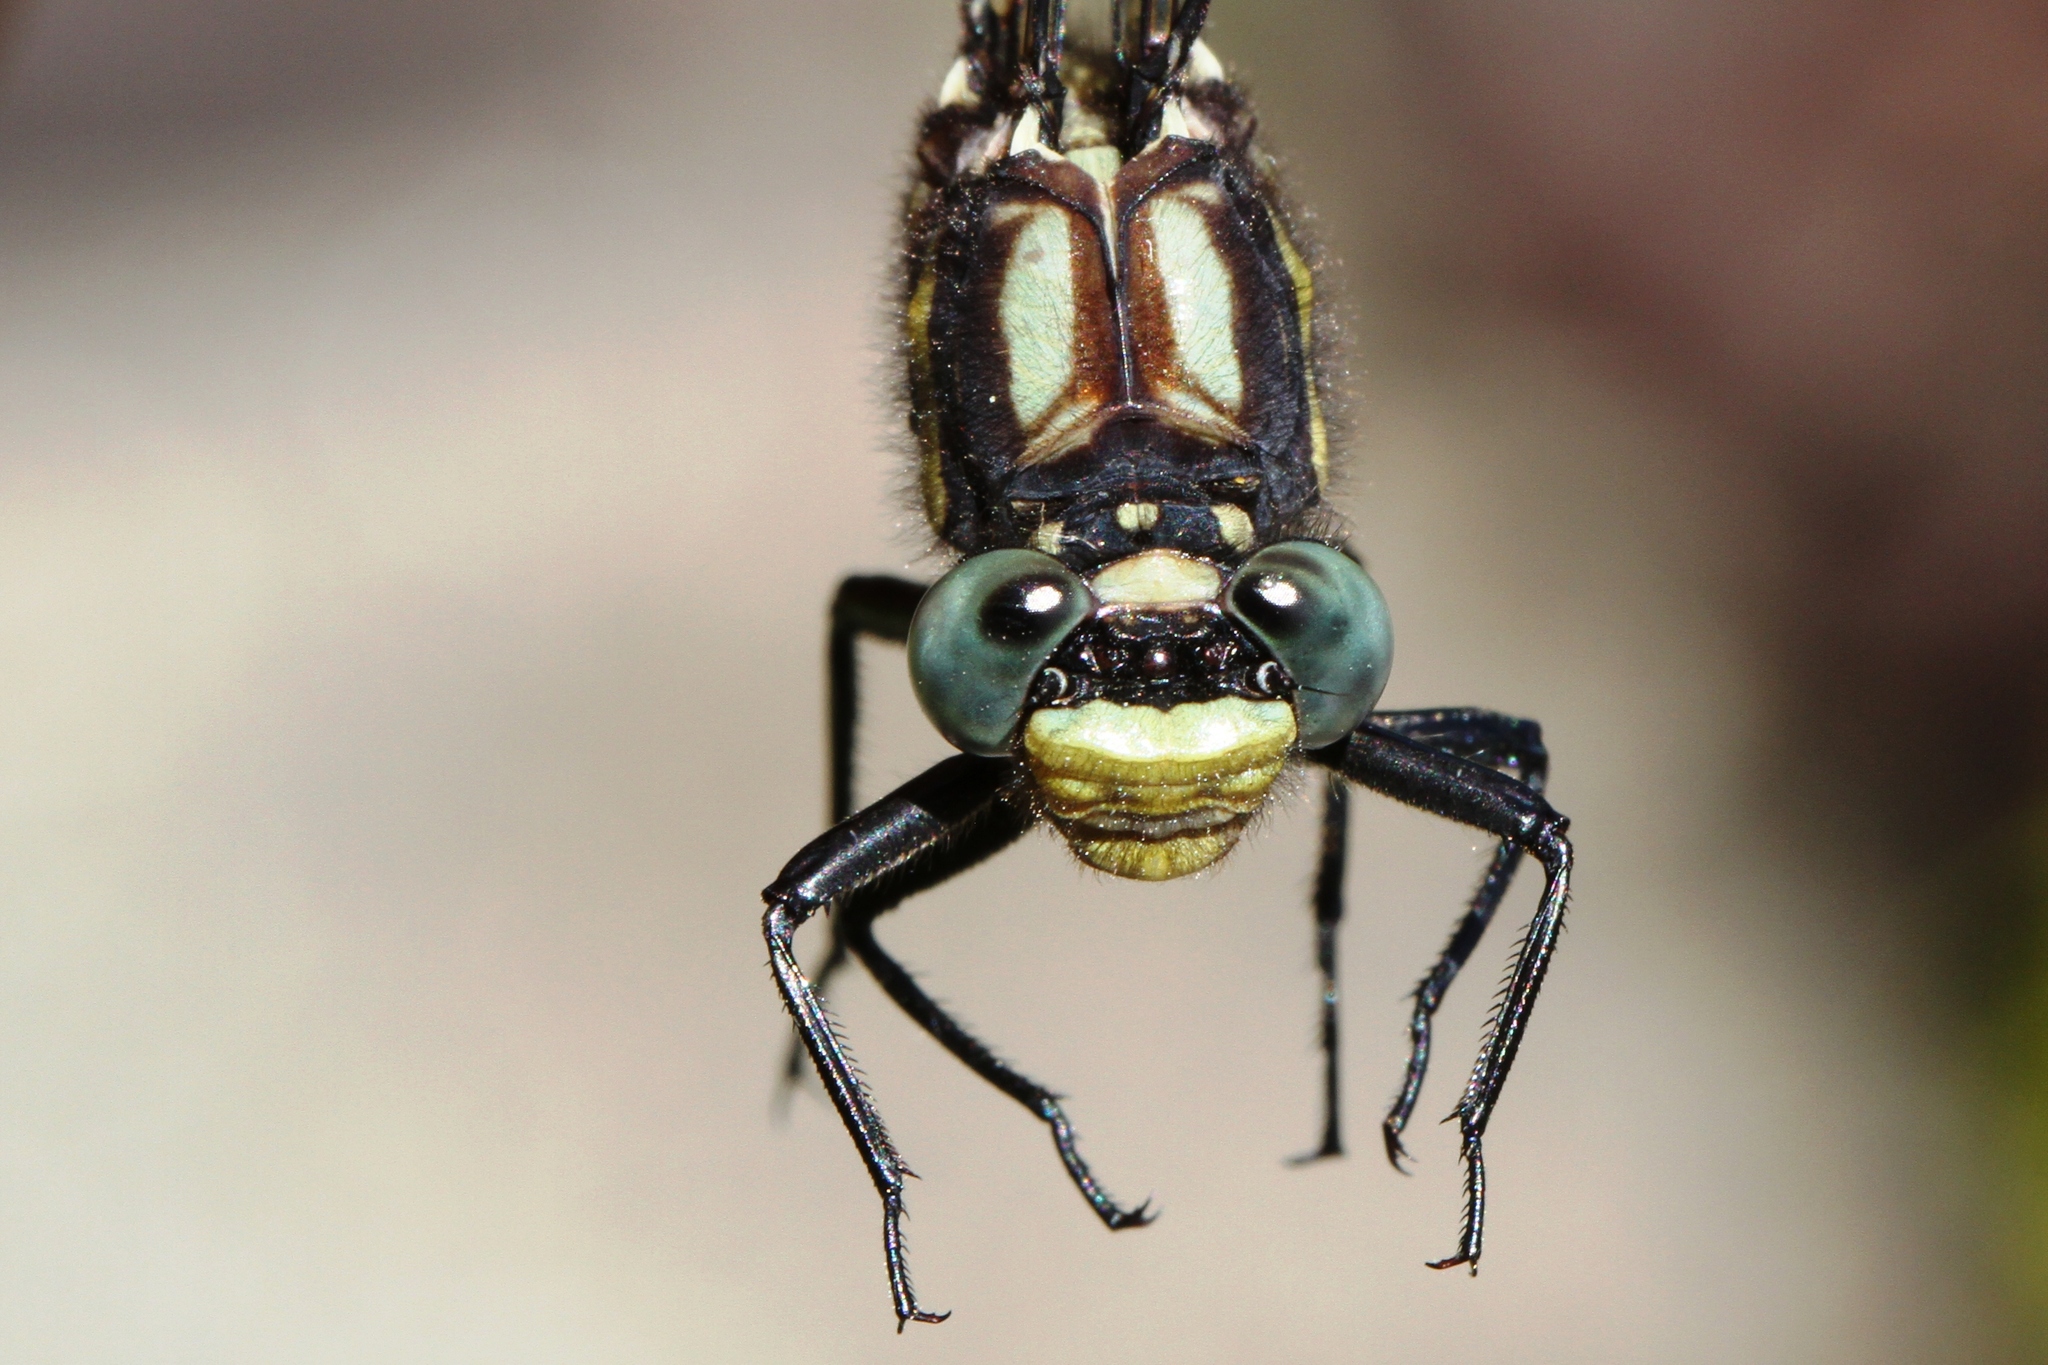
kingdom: Animalia
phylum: Arthropoda
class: Insecta
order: Odonata
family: Gomphidae
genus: Phanogomphus
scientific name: Phanogomphus descriptus
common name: Harpoon clubtail
